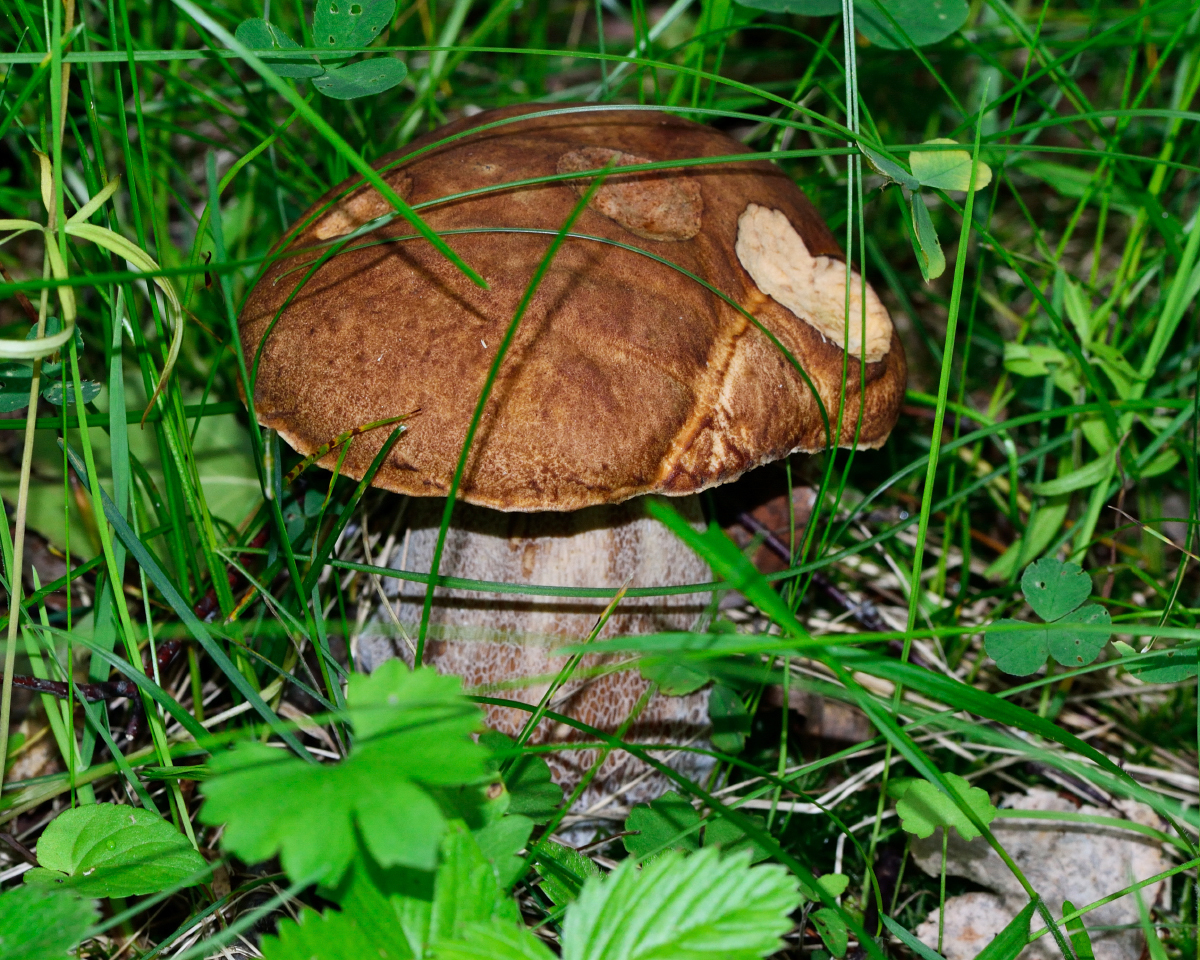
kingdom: Fungi
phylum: Basidiomycota
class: Agaricomycetes
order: Boletales
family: Boletaceae
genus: Boletus
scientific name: Boletus reticulatus
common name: Summer bolete
